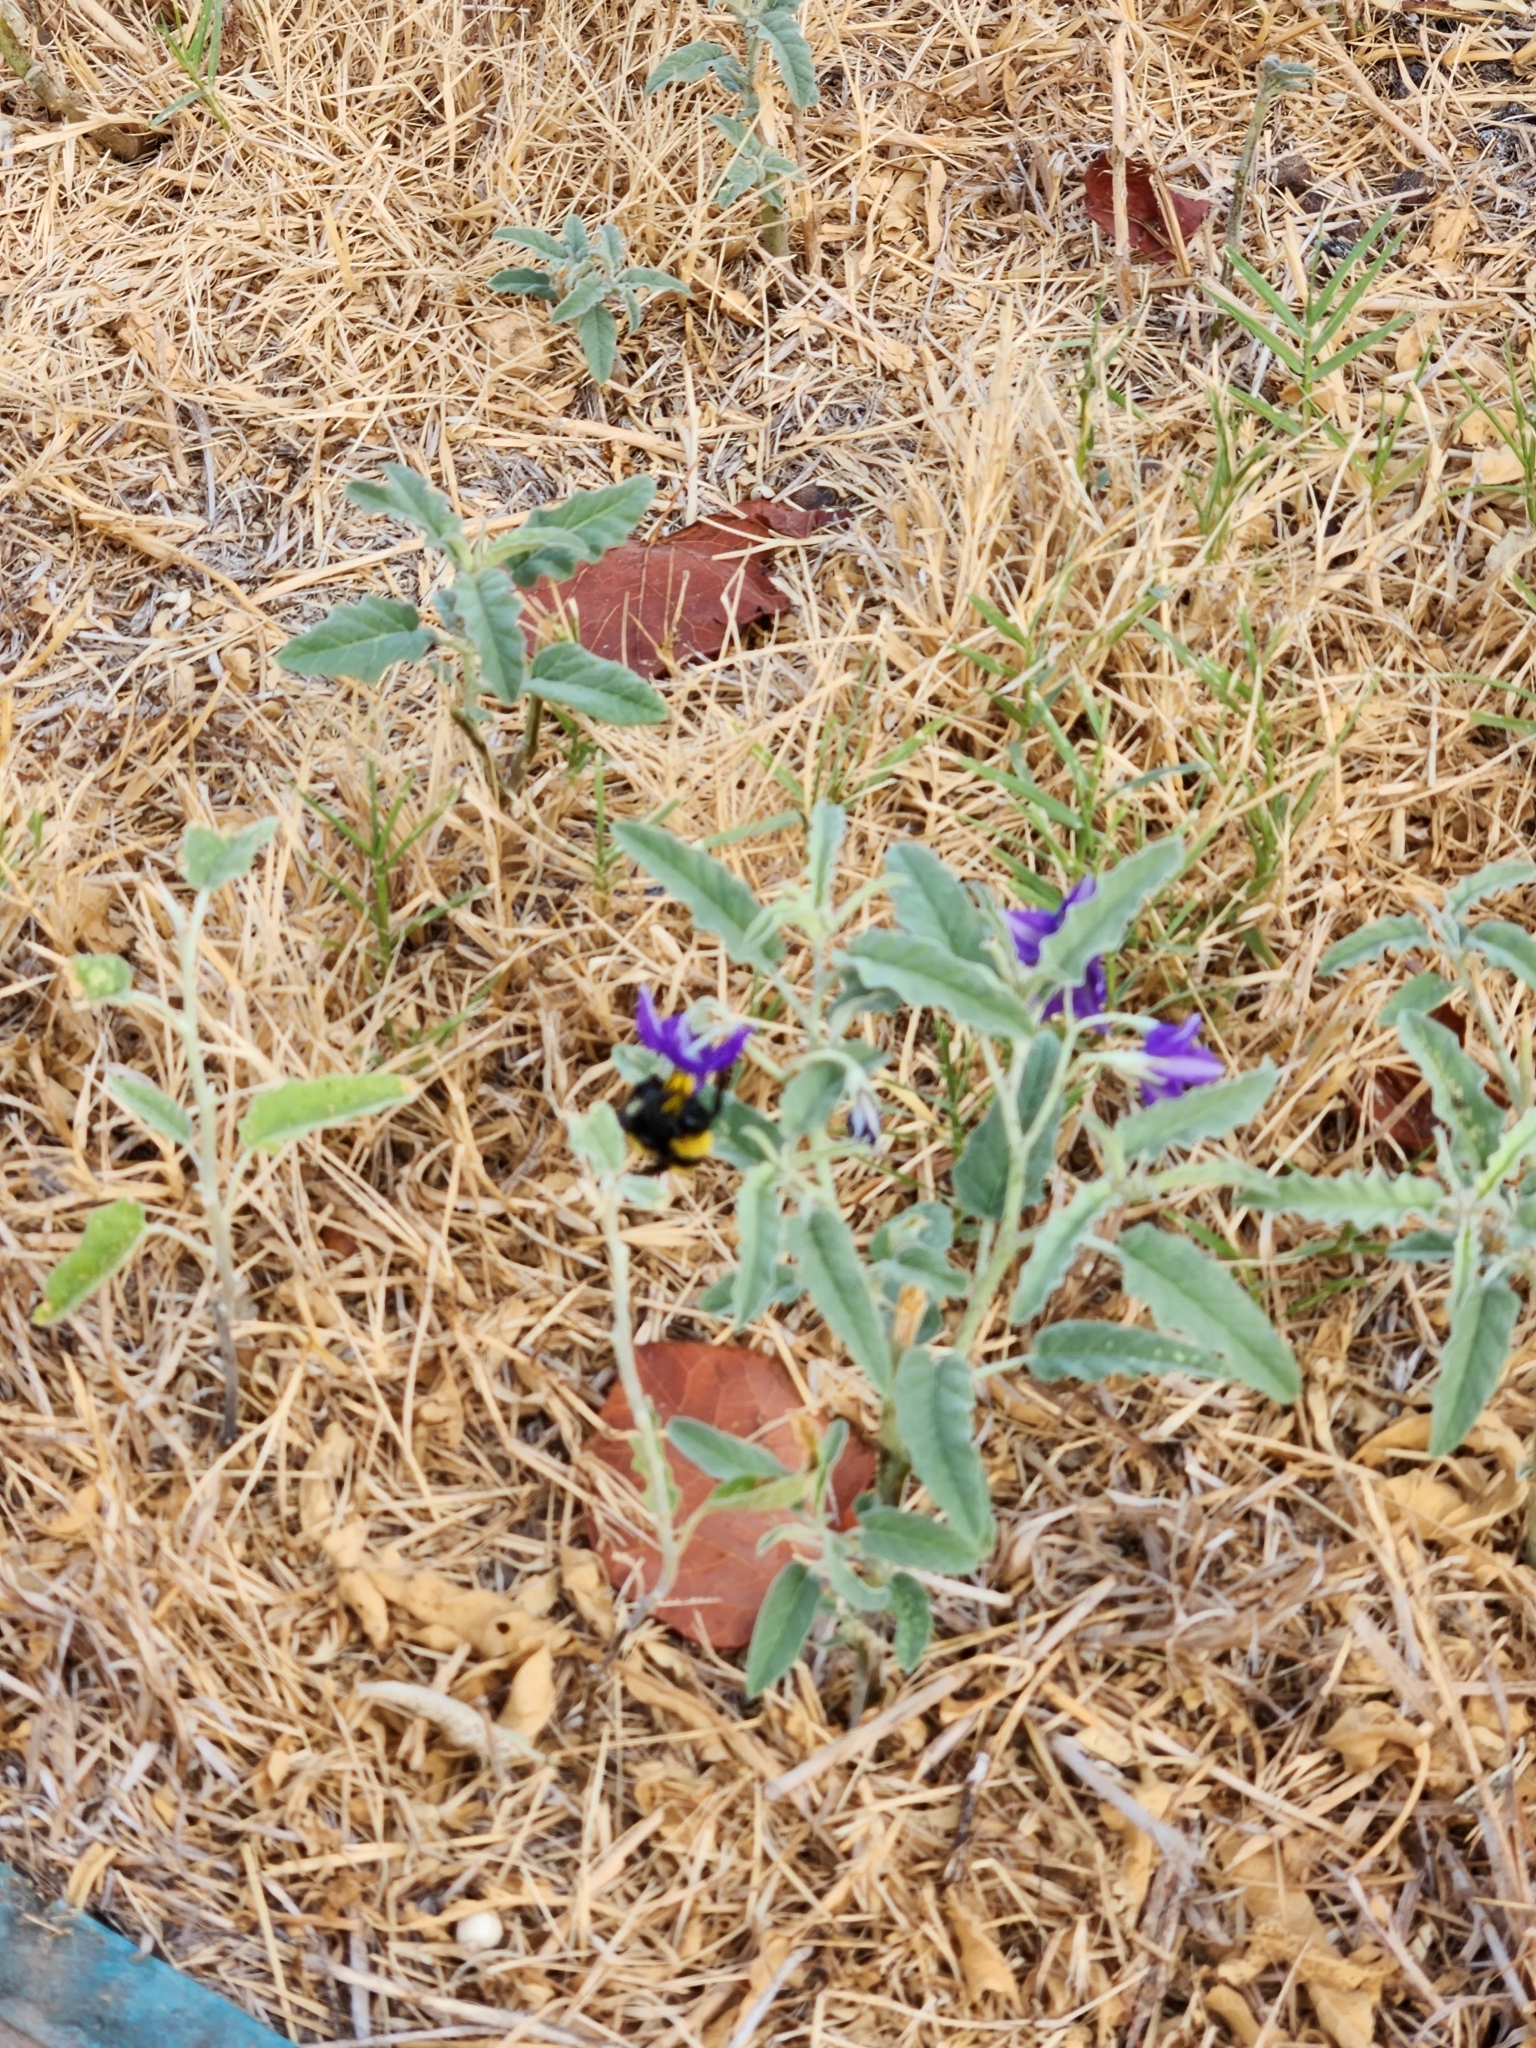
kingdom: Animalia
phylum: Arthropoda
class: Insecta
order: Hymenoptera
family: Apidae
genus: Bombus
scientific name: Bombus sonorus
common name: Sonoran bumble bee
